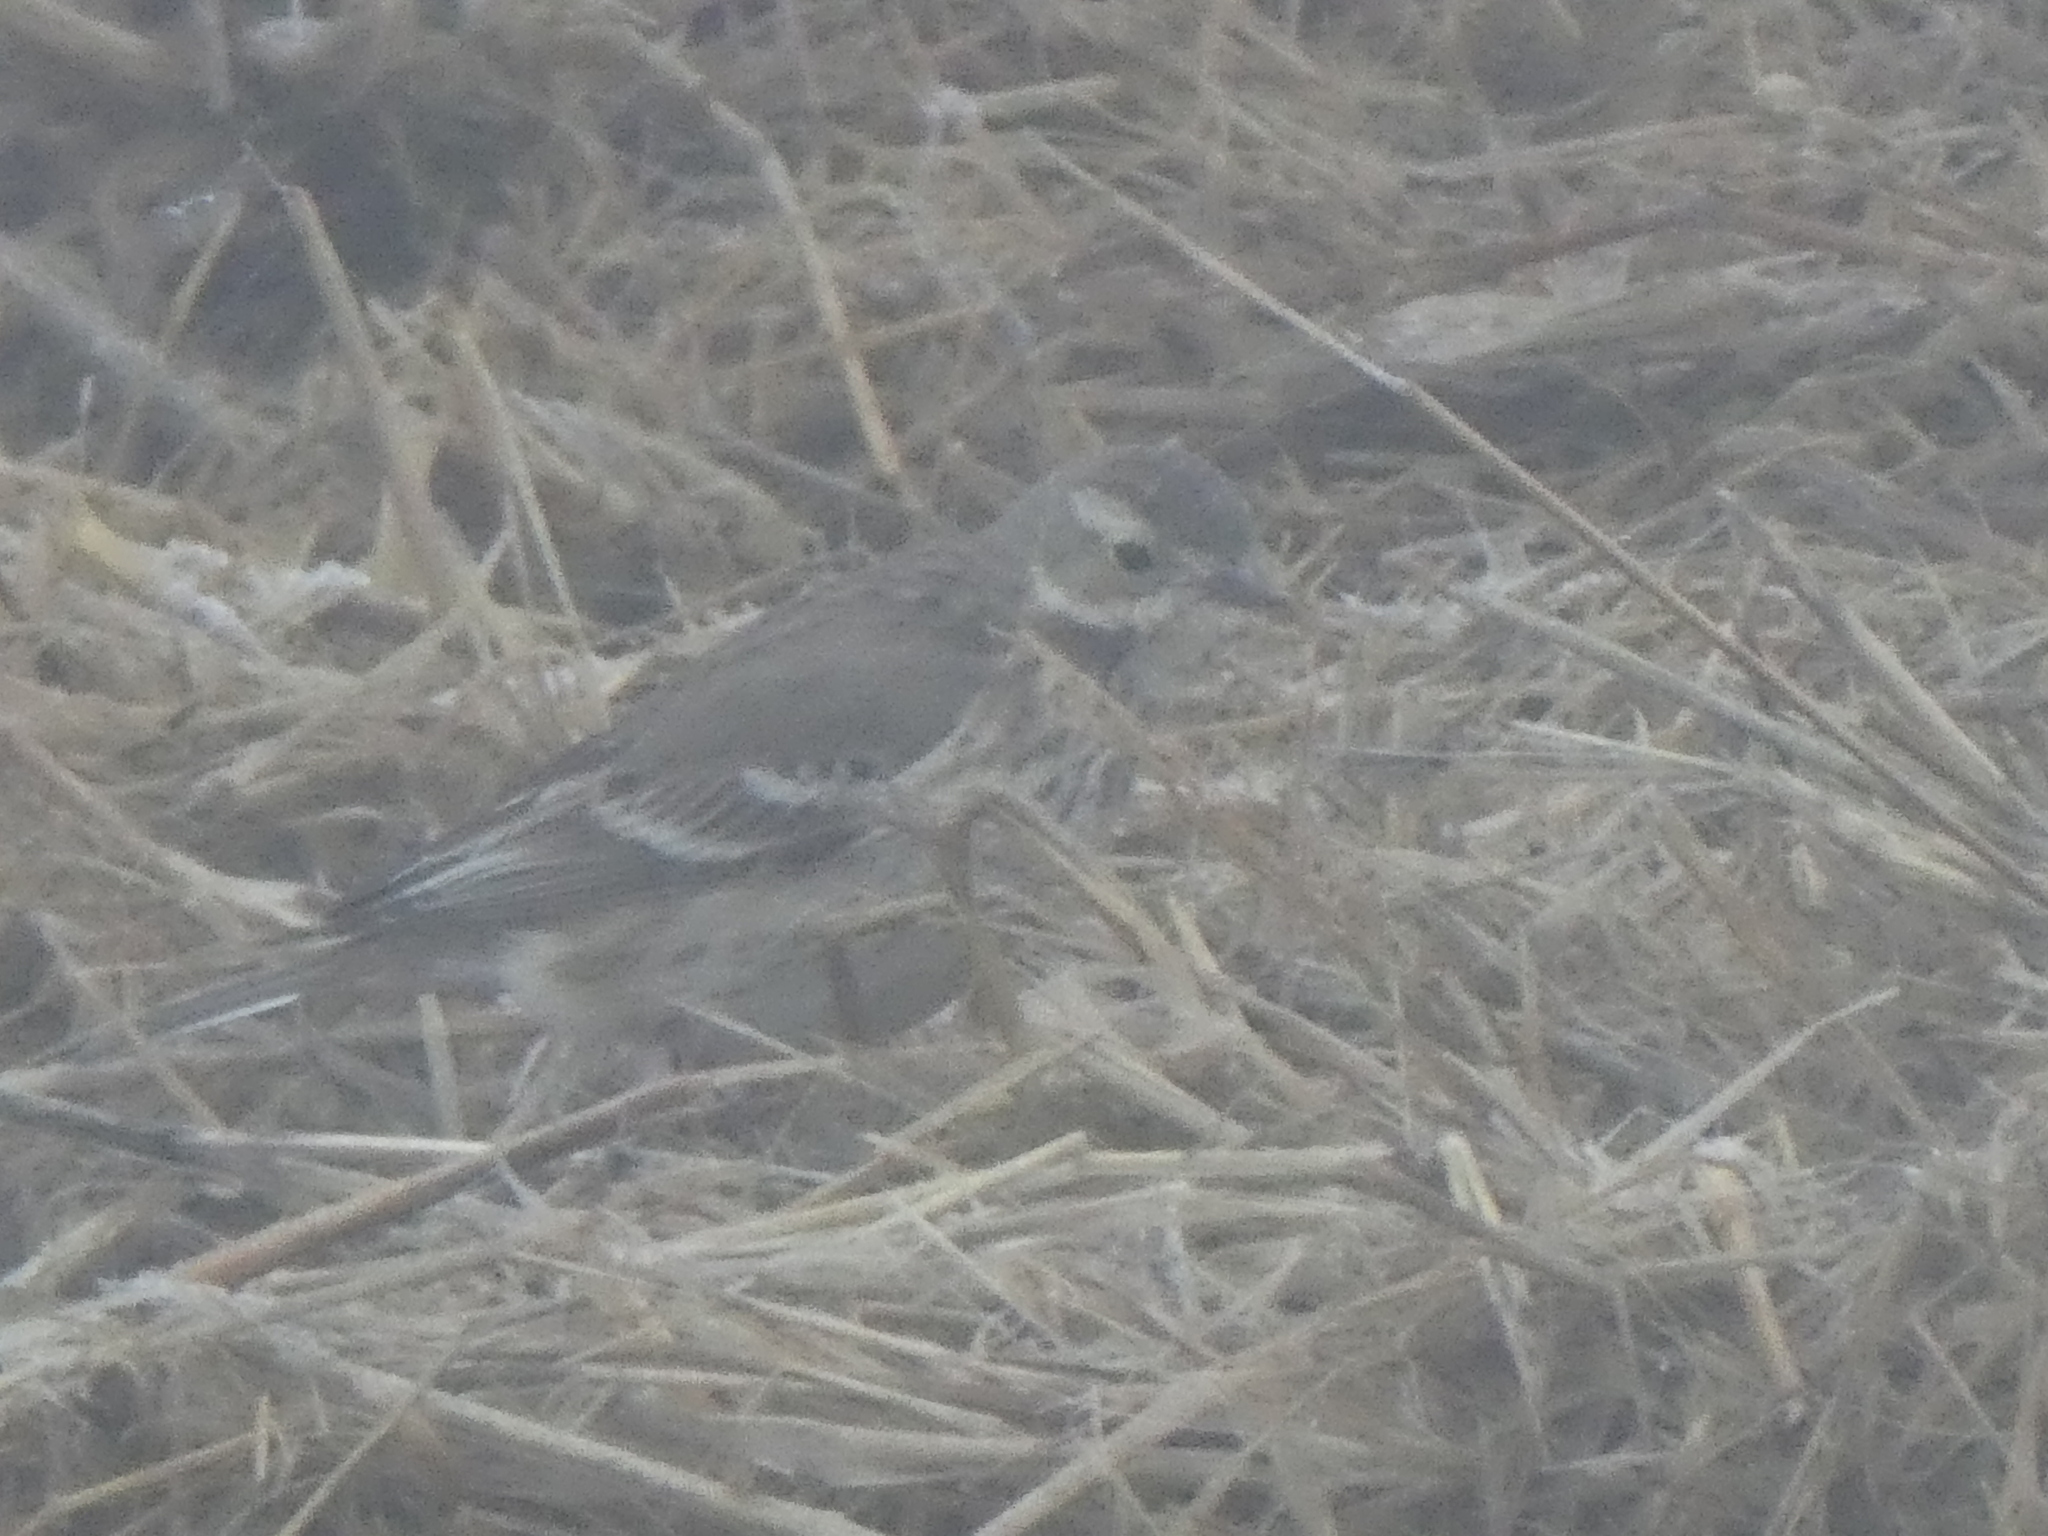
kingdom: Animalia
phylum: Chordata
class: Aves
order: Passeriformes
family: Motacillidae
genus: Anthus
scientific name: Anthus rubescens
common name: Buff-bellied pipit
